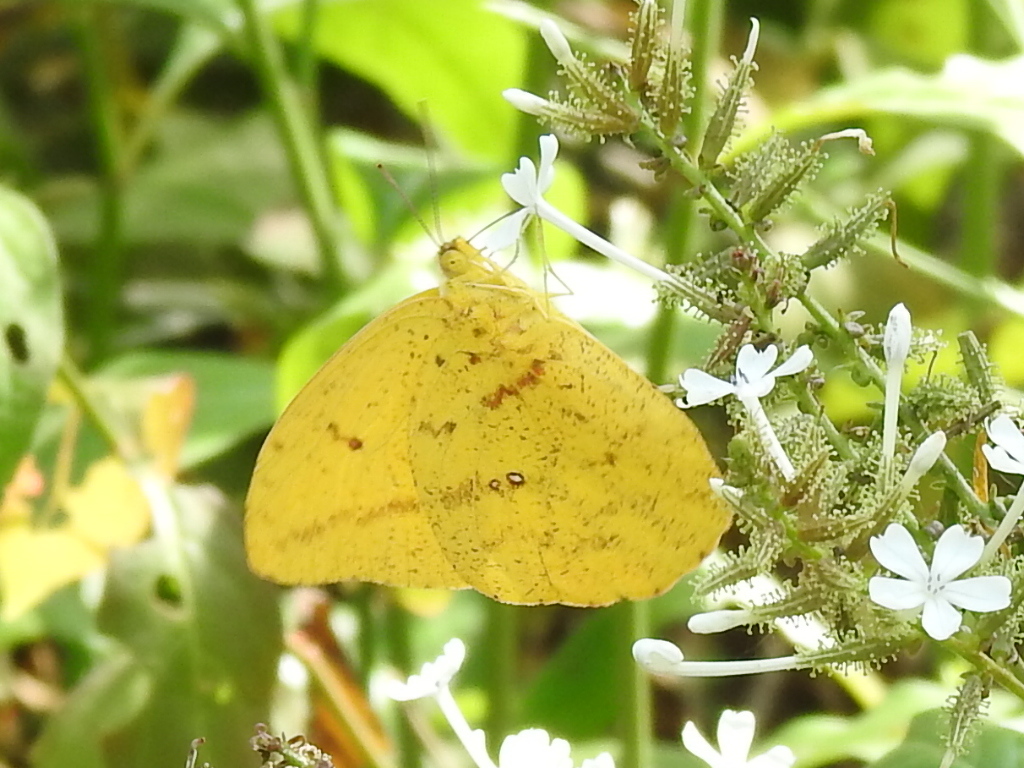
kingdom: Animalia
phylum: Arthropoda
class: Insecta
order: Lepidoptera
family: Pieridae
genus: Phoebis
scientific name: Phoebis agarithe
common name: Large orange sulphur
